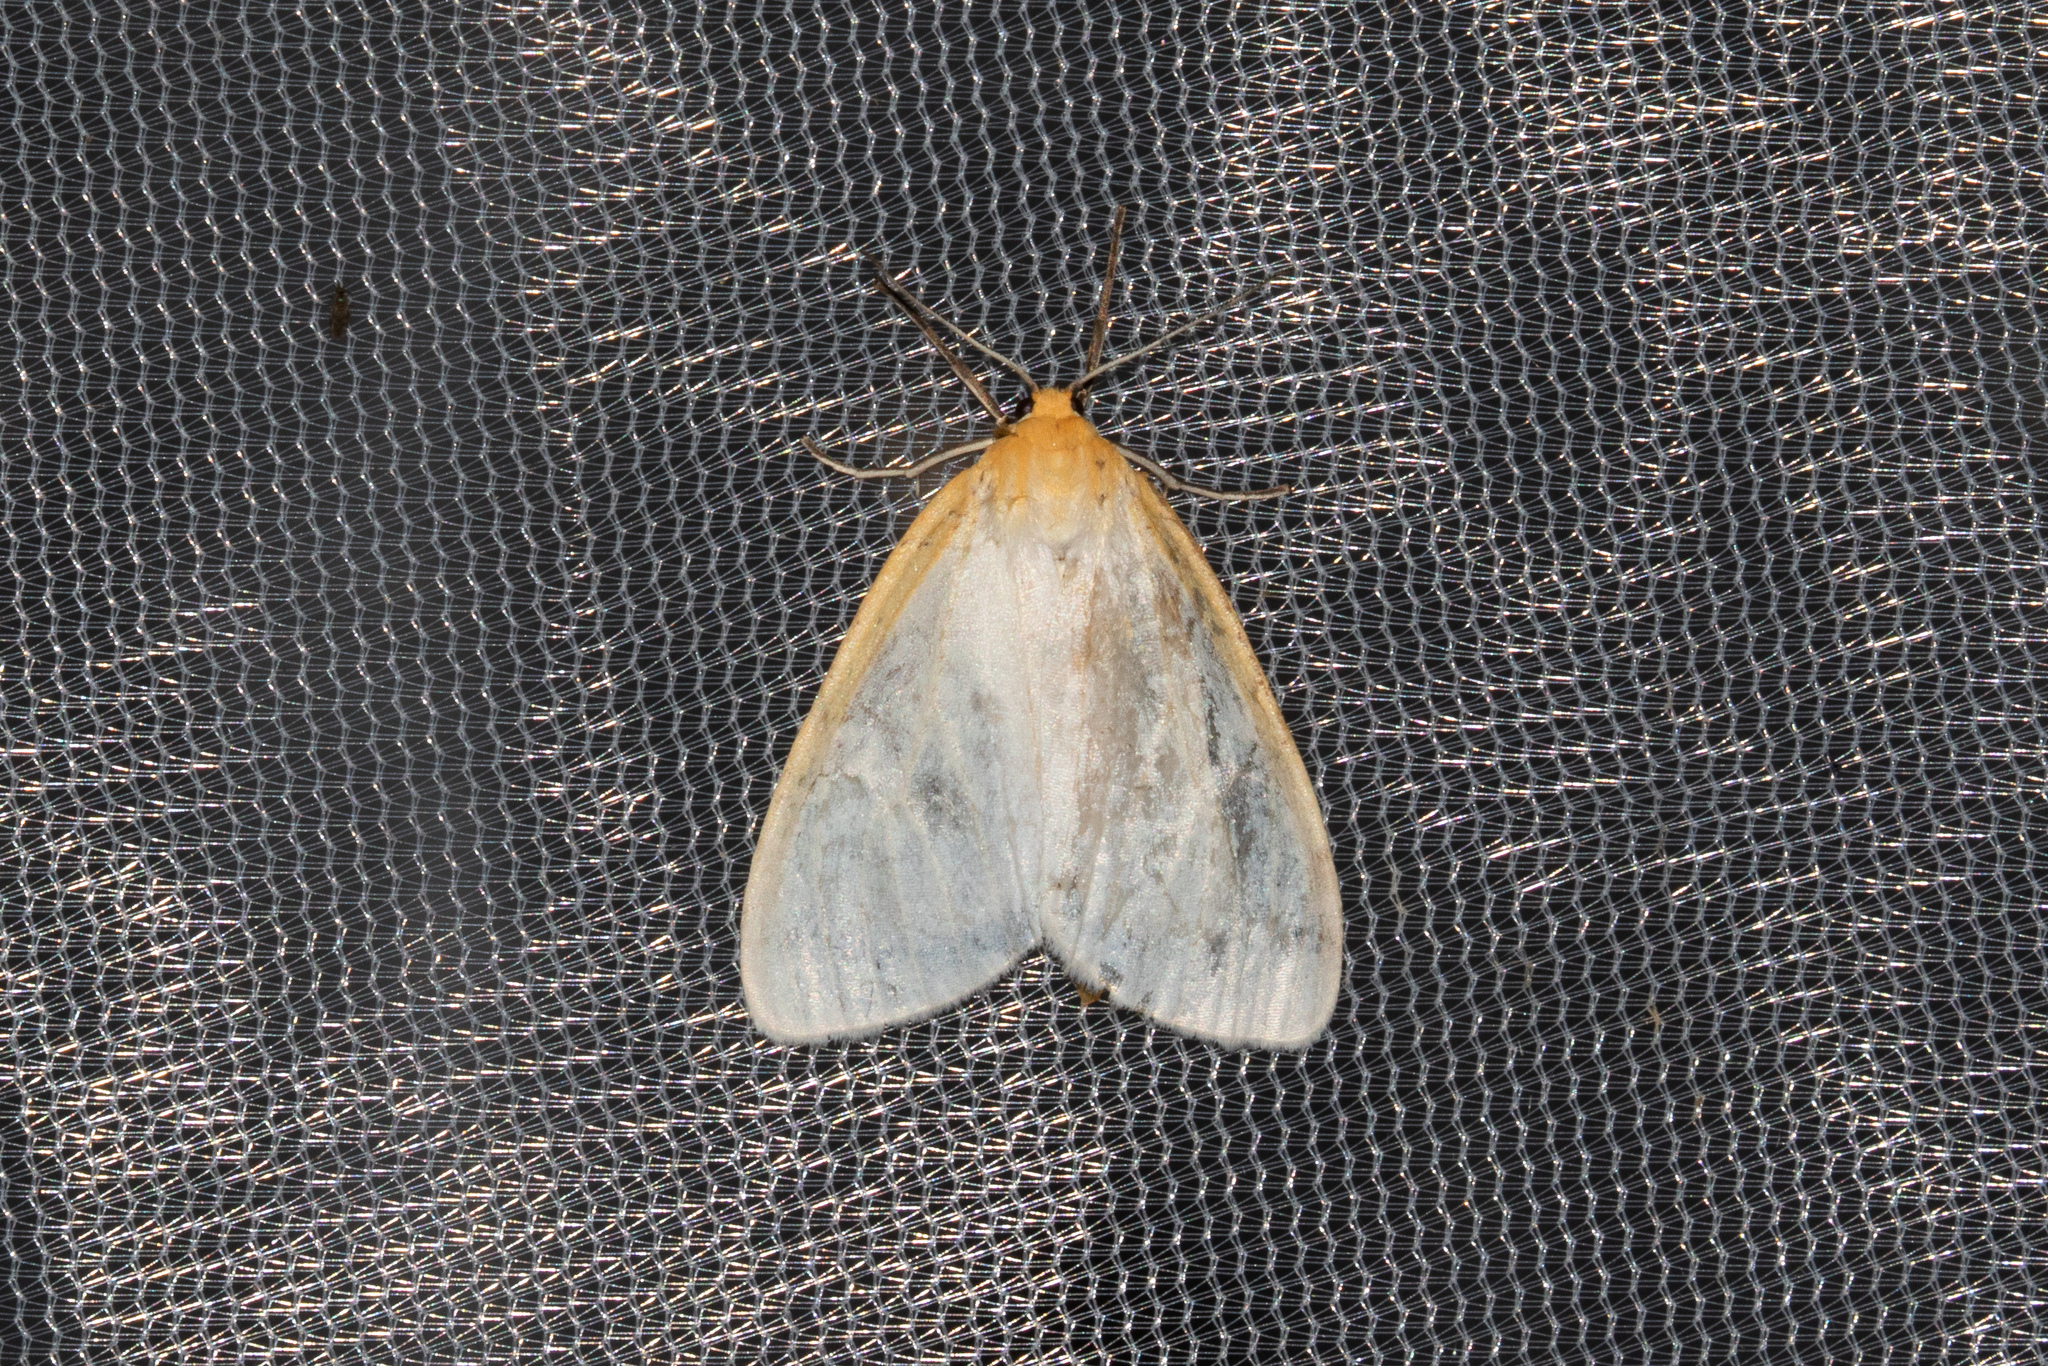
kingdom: Animalia
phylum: Arthropoda
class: Insecta
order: Lepidoptera
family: Erebidae
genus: Cycnia
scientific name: Cycnia tenera
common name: Delicate cycnia moth
